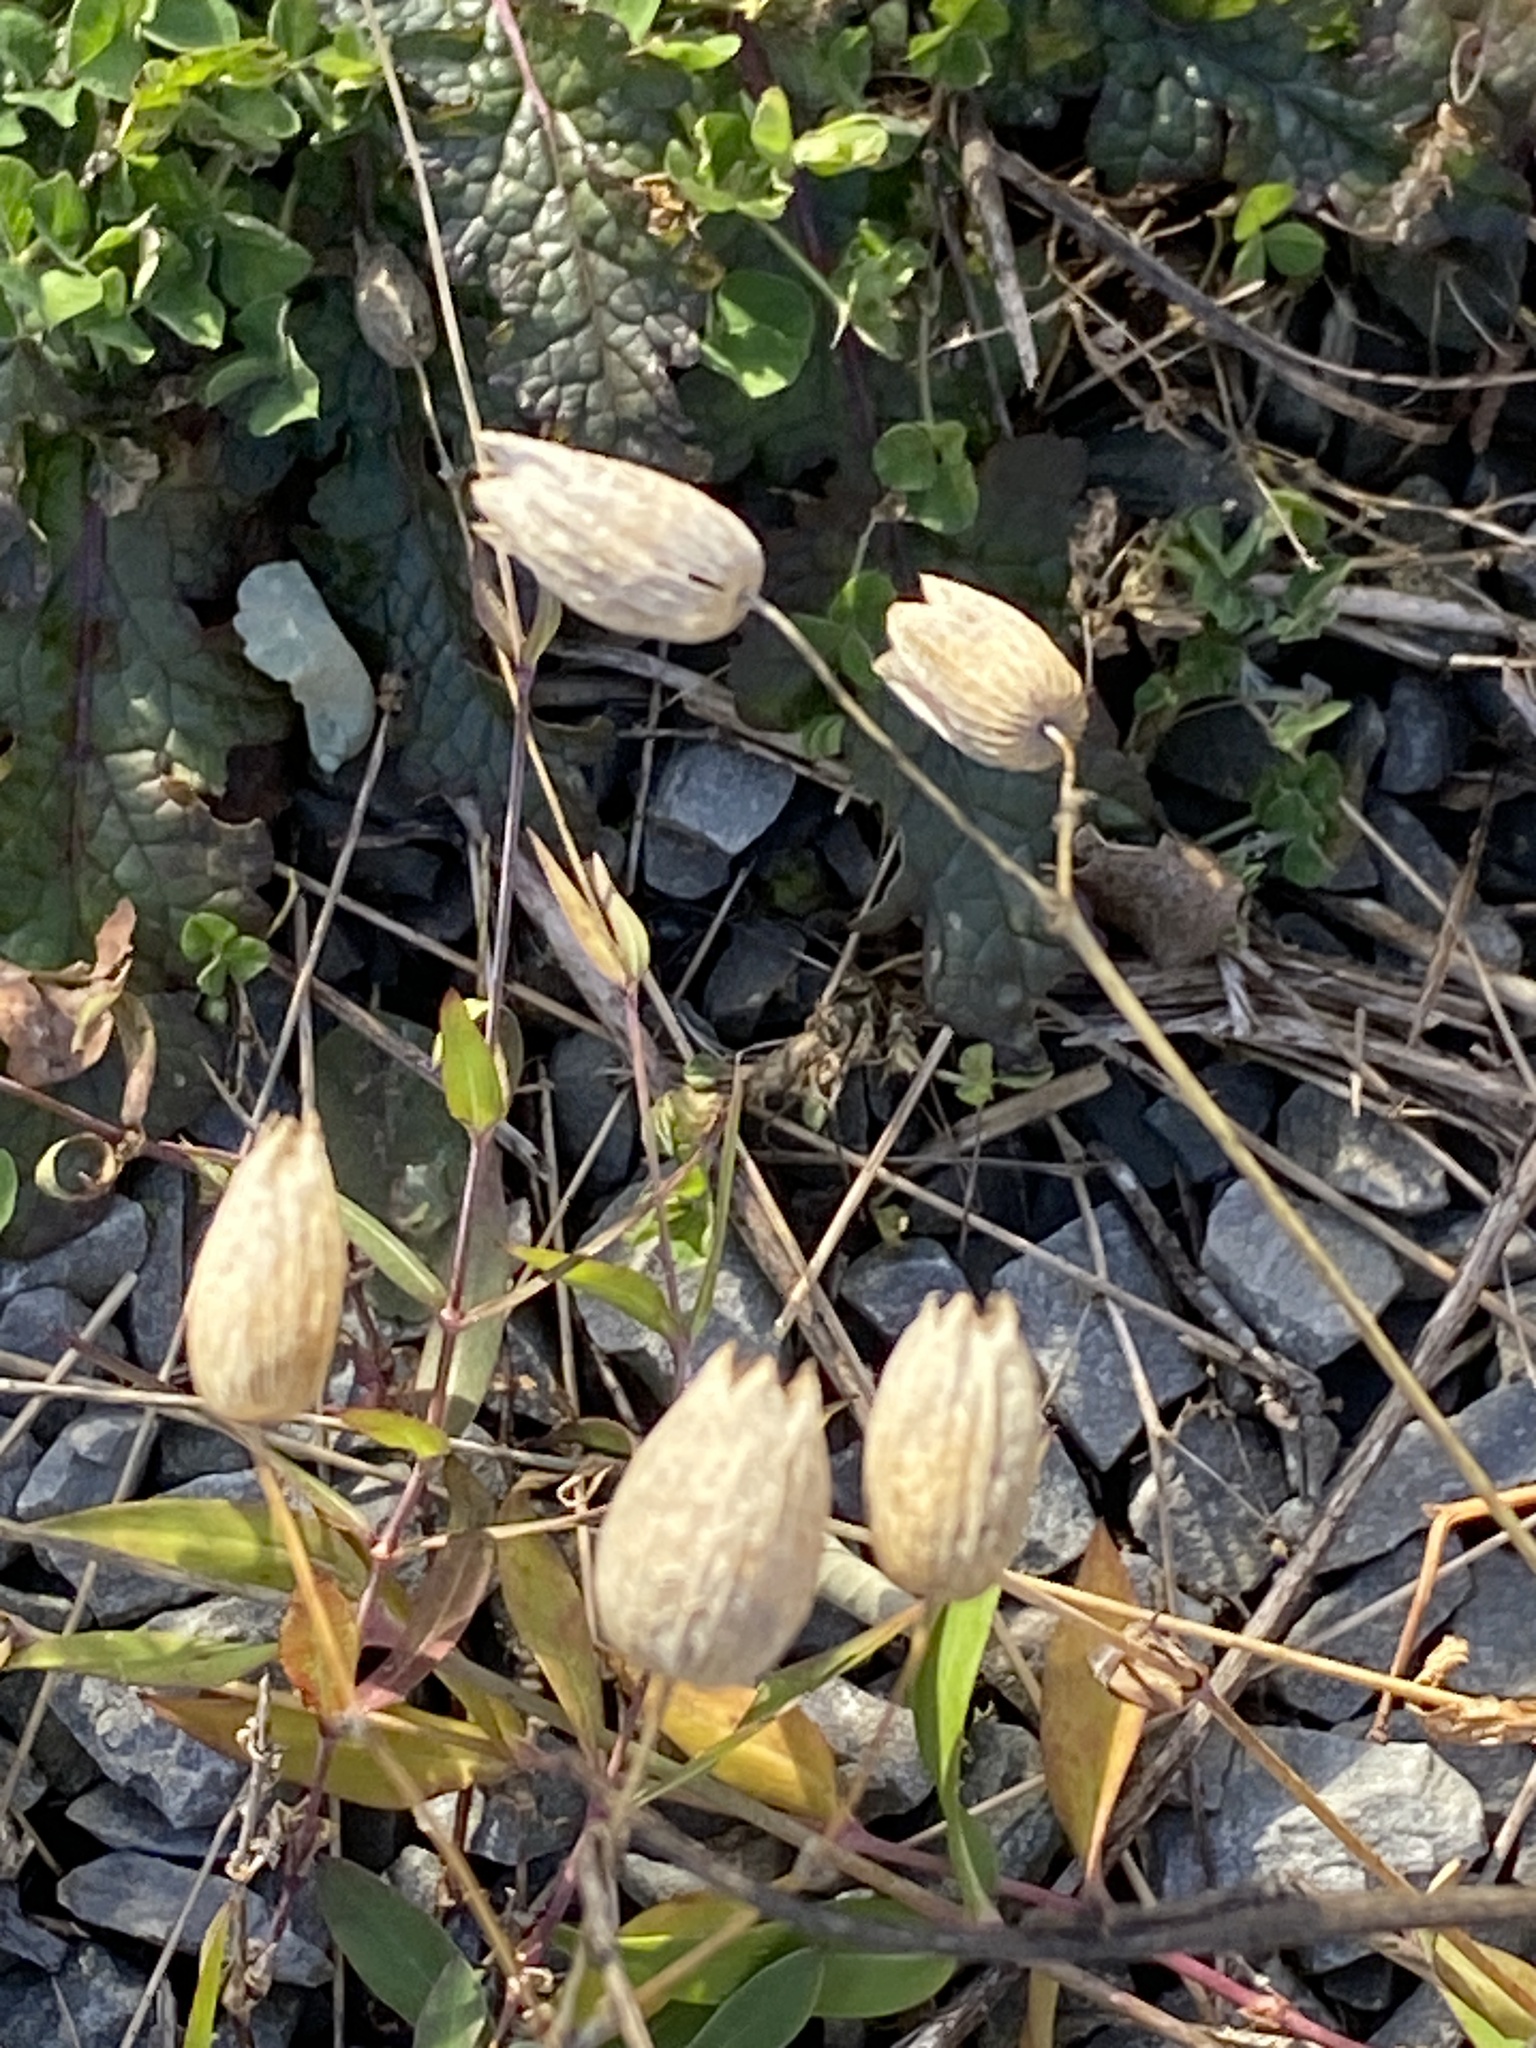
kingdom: Plantae
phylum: Tracheophyta
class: Magnoliopsida
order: Caryophyllales
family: Caryophyllaceae
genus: Silene
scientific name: Silene vulgaris
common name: Bladder campion
